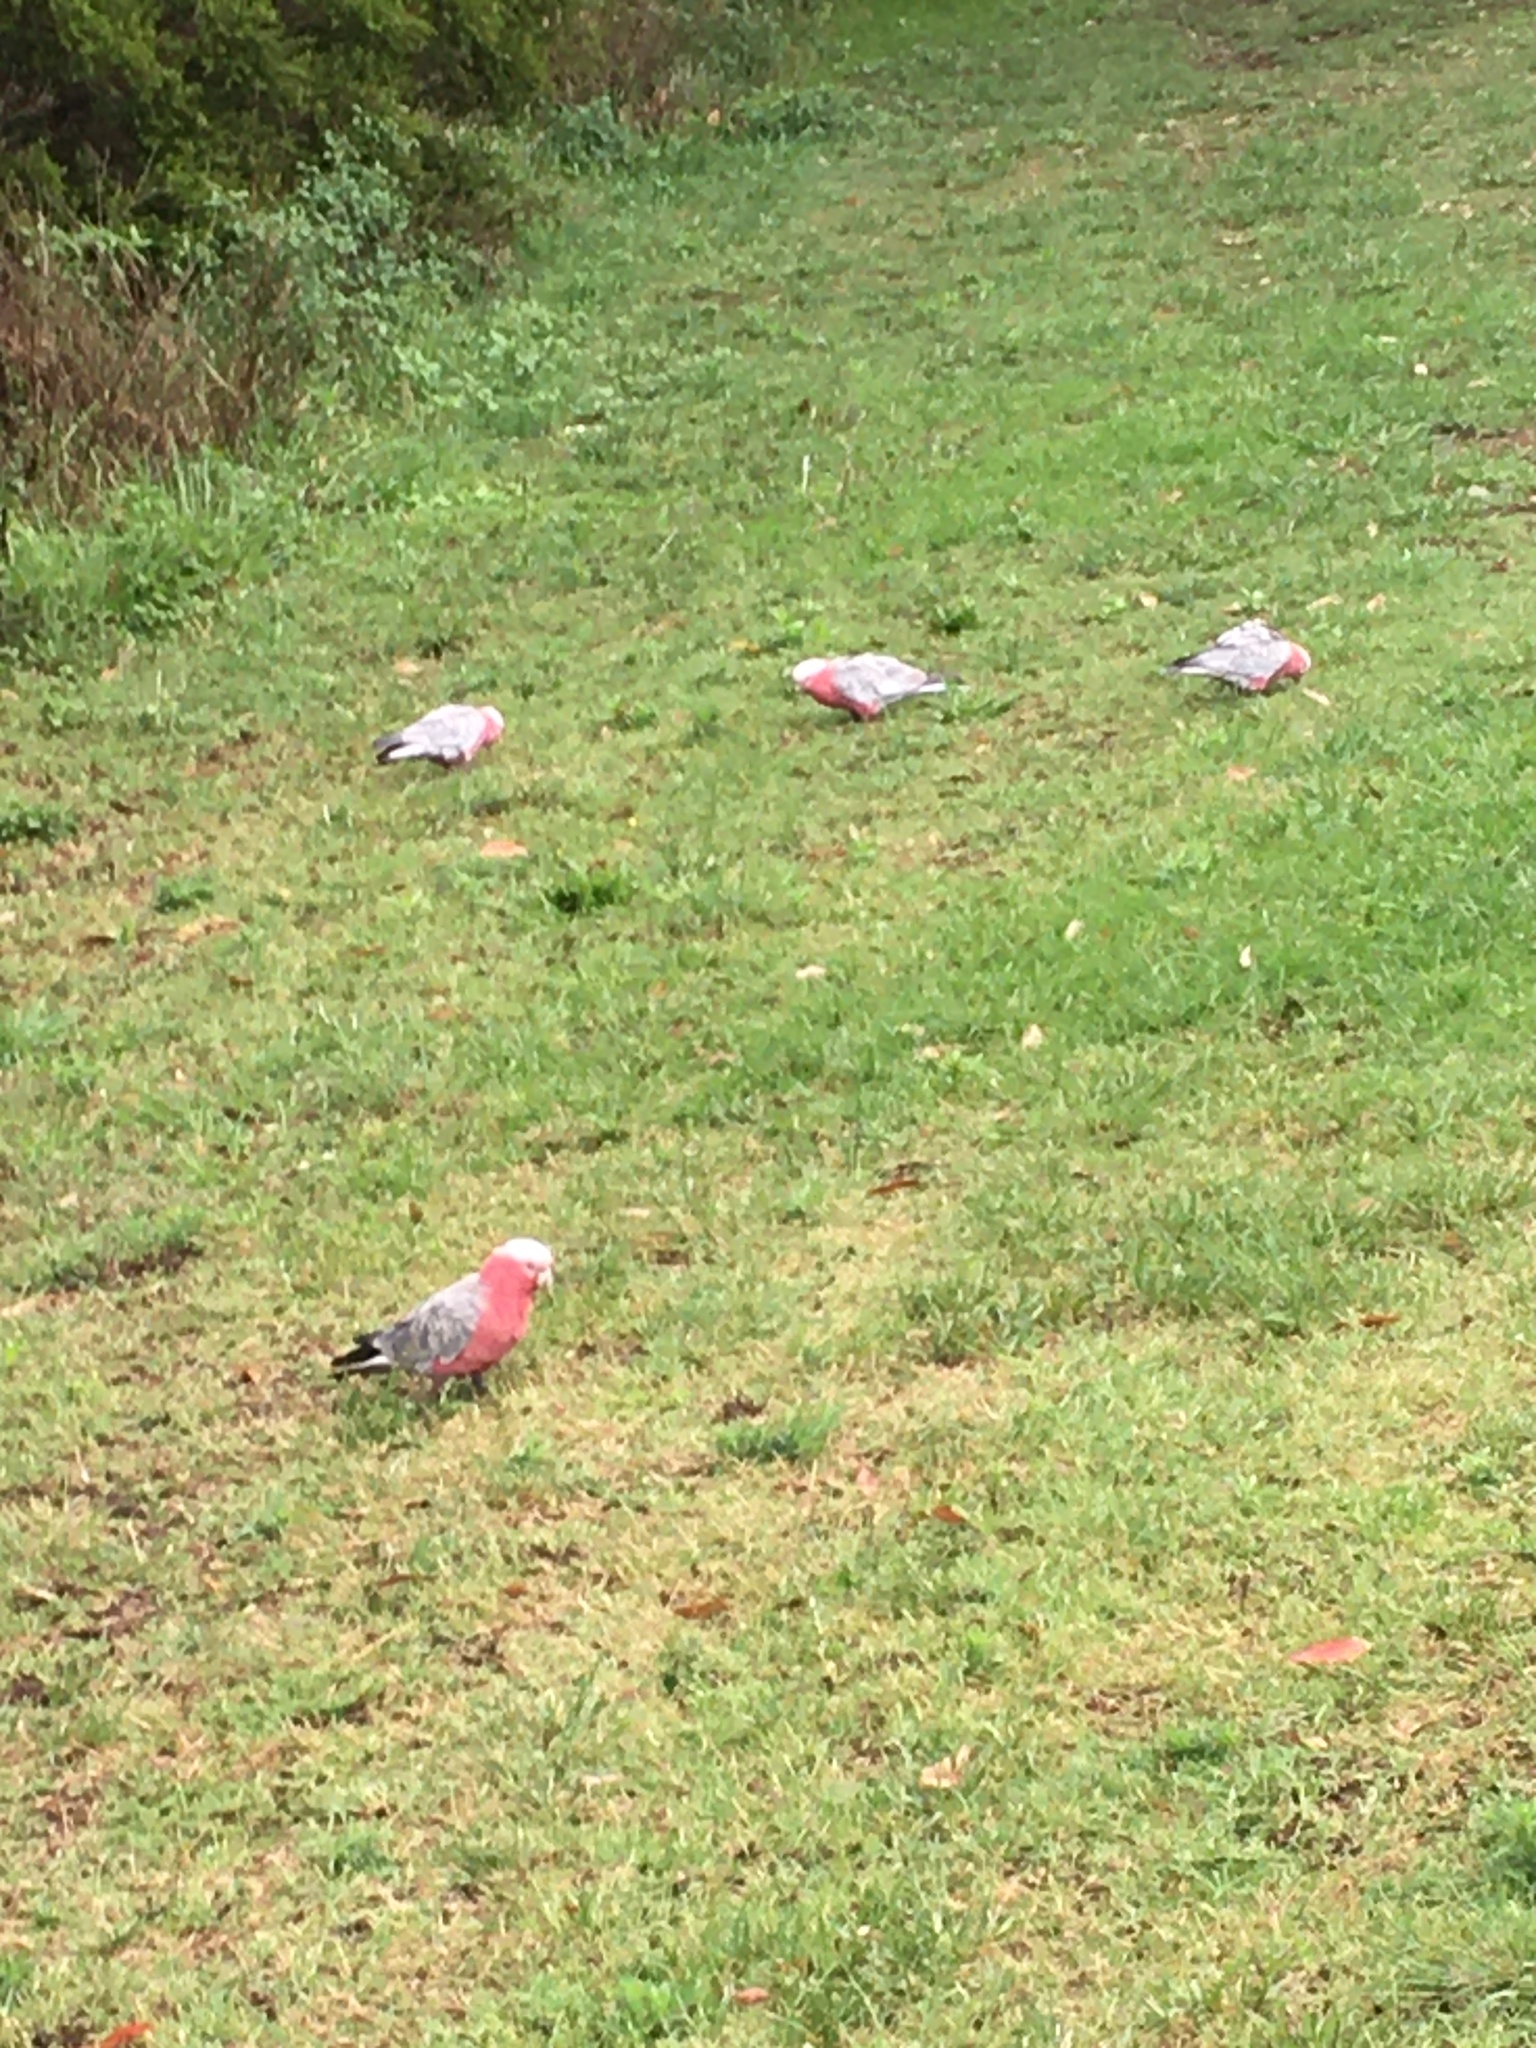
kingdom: Animalia
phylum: Chordata
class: Aves
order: Psittaciformes
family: Psittacidae
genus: Eolophus
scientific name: Eolophus roseicapilla
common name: Galah
